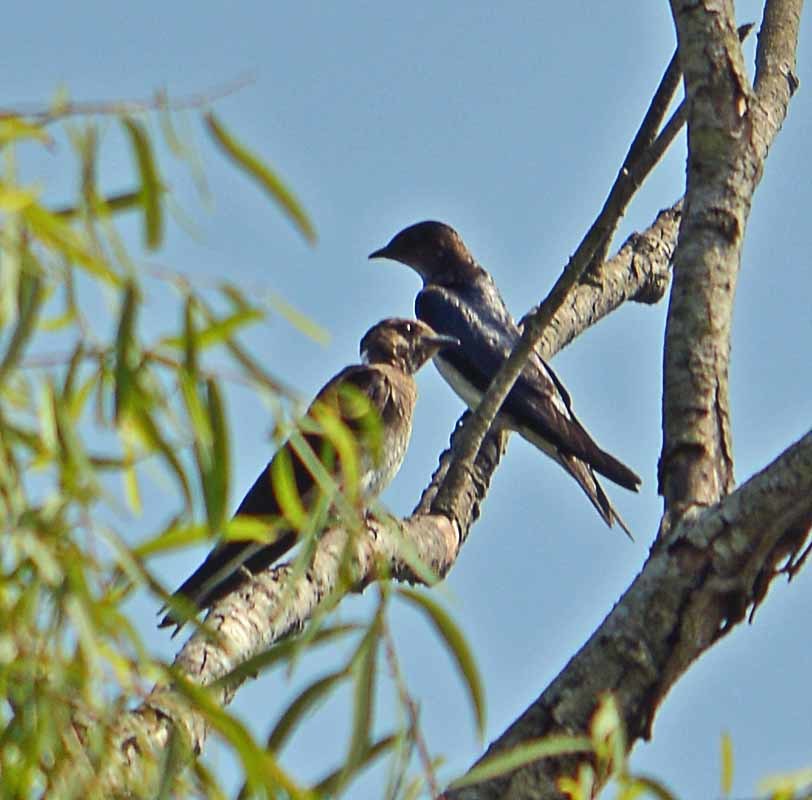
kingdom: Animalia
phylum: Chordata
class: Aves
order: Passeriformes
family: Hirundinidae
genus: Progne
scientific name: Progne chalybea
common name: Grey-breasted martin
